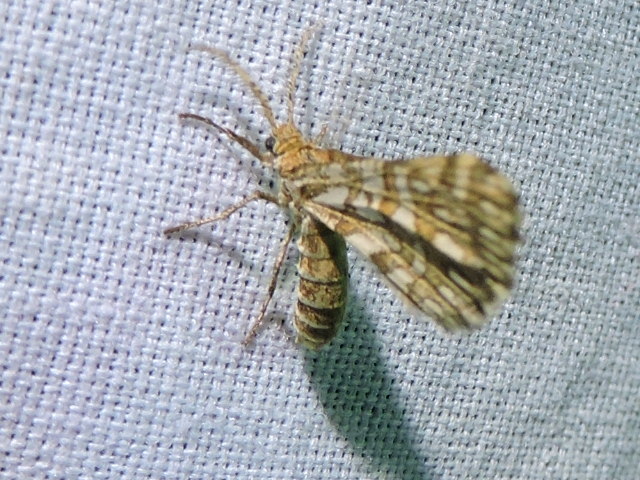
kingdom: Animalia
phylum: Arthropoda
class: Insecta
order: Lepidoptera
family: Geometridae
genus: Narraga
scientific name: Narraga fimetaria
